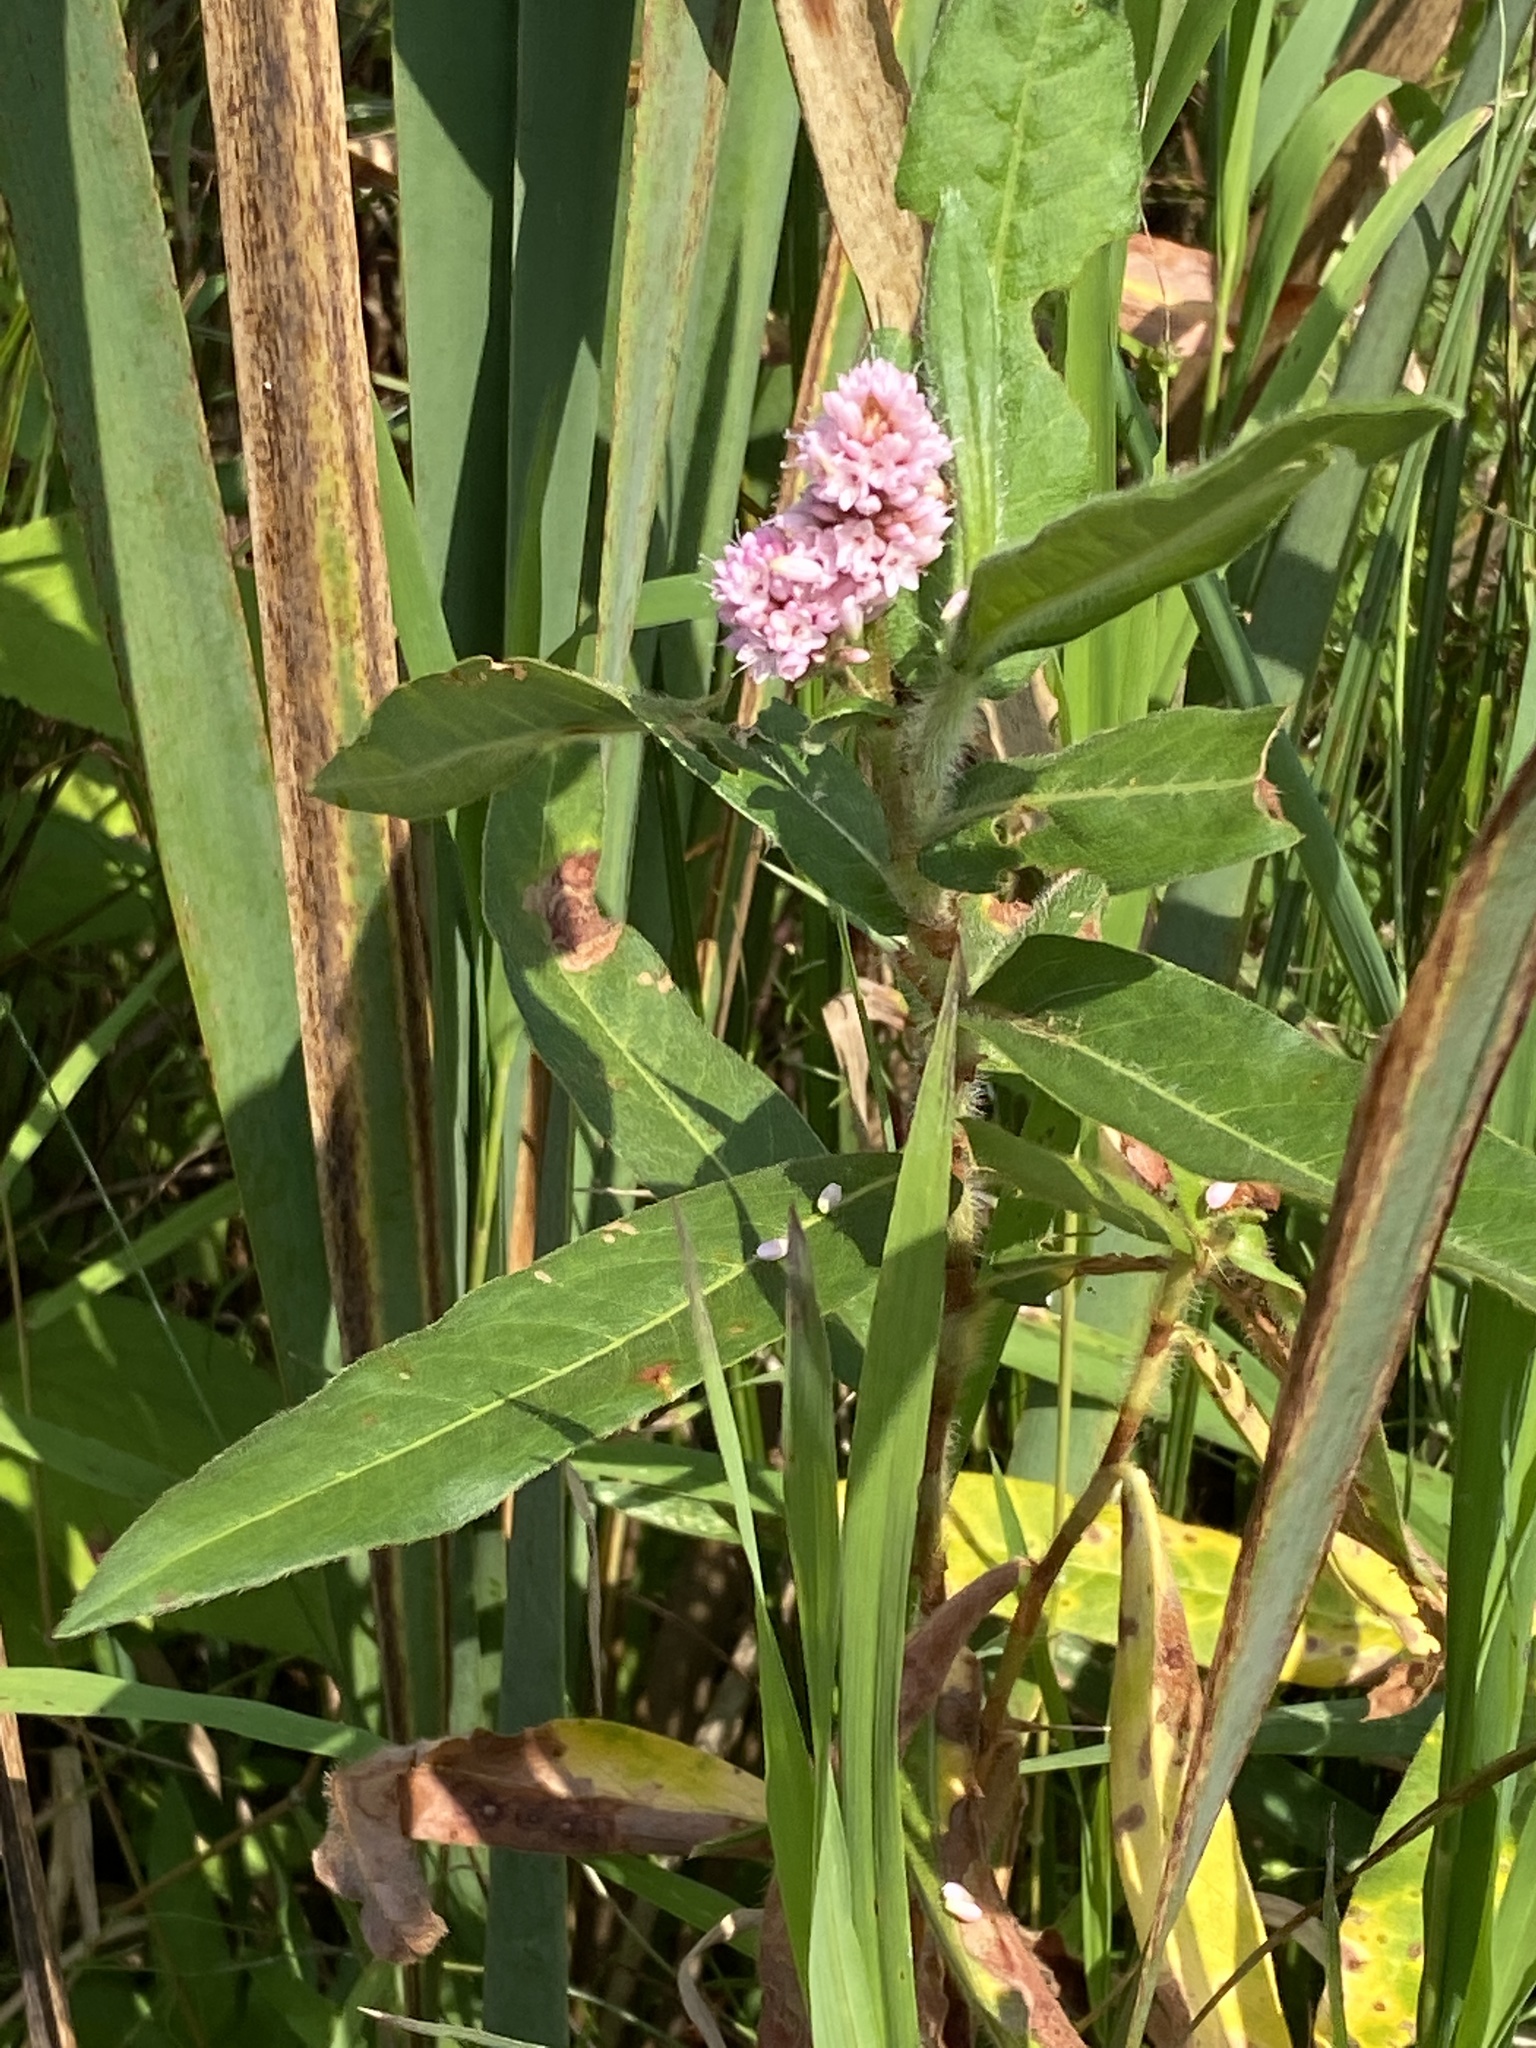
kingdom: Plantae
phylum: Tracheophyta
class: Magnoliopsida
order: Caryophyllales
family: Polygonaceae
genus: Persicaria
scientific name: Persicaria amphibia
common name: Amphibious bistort
